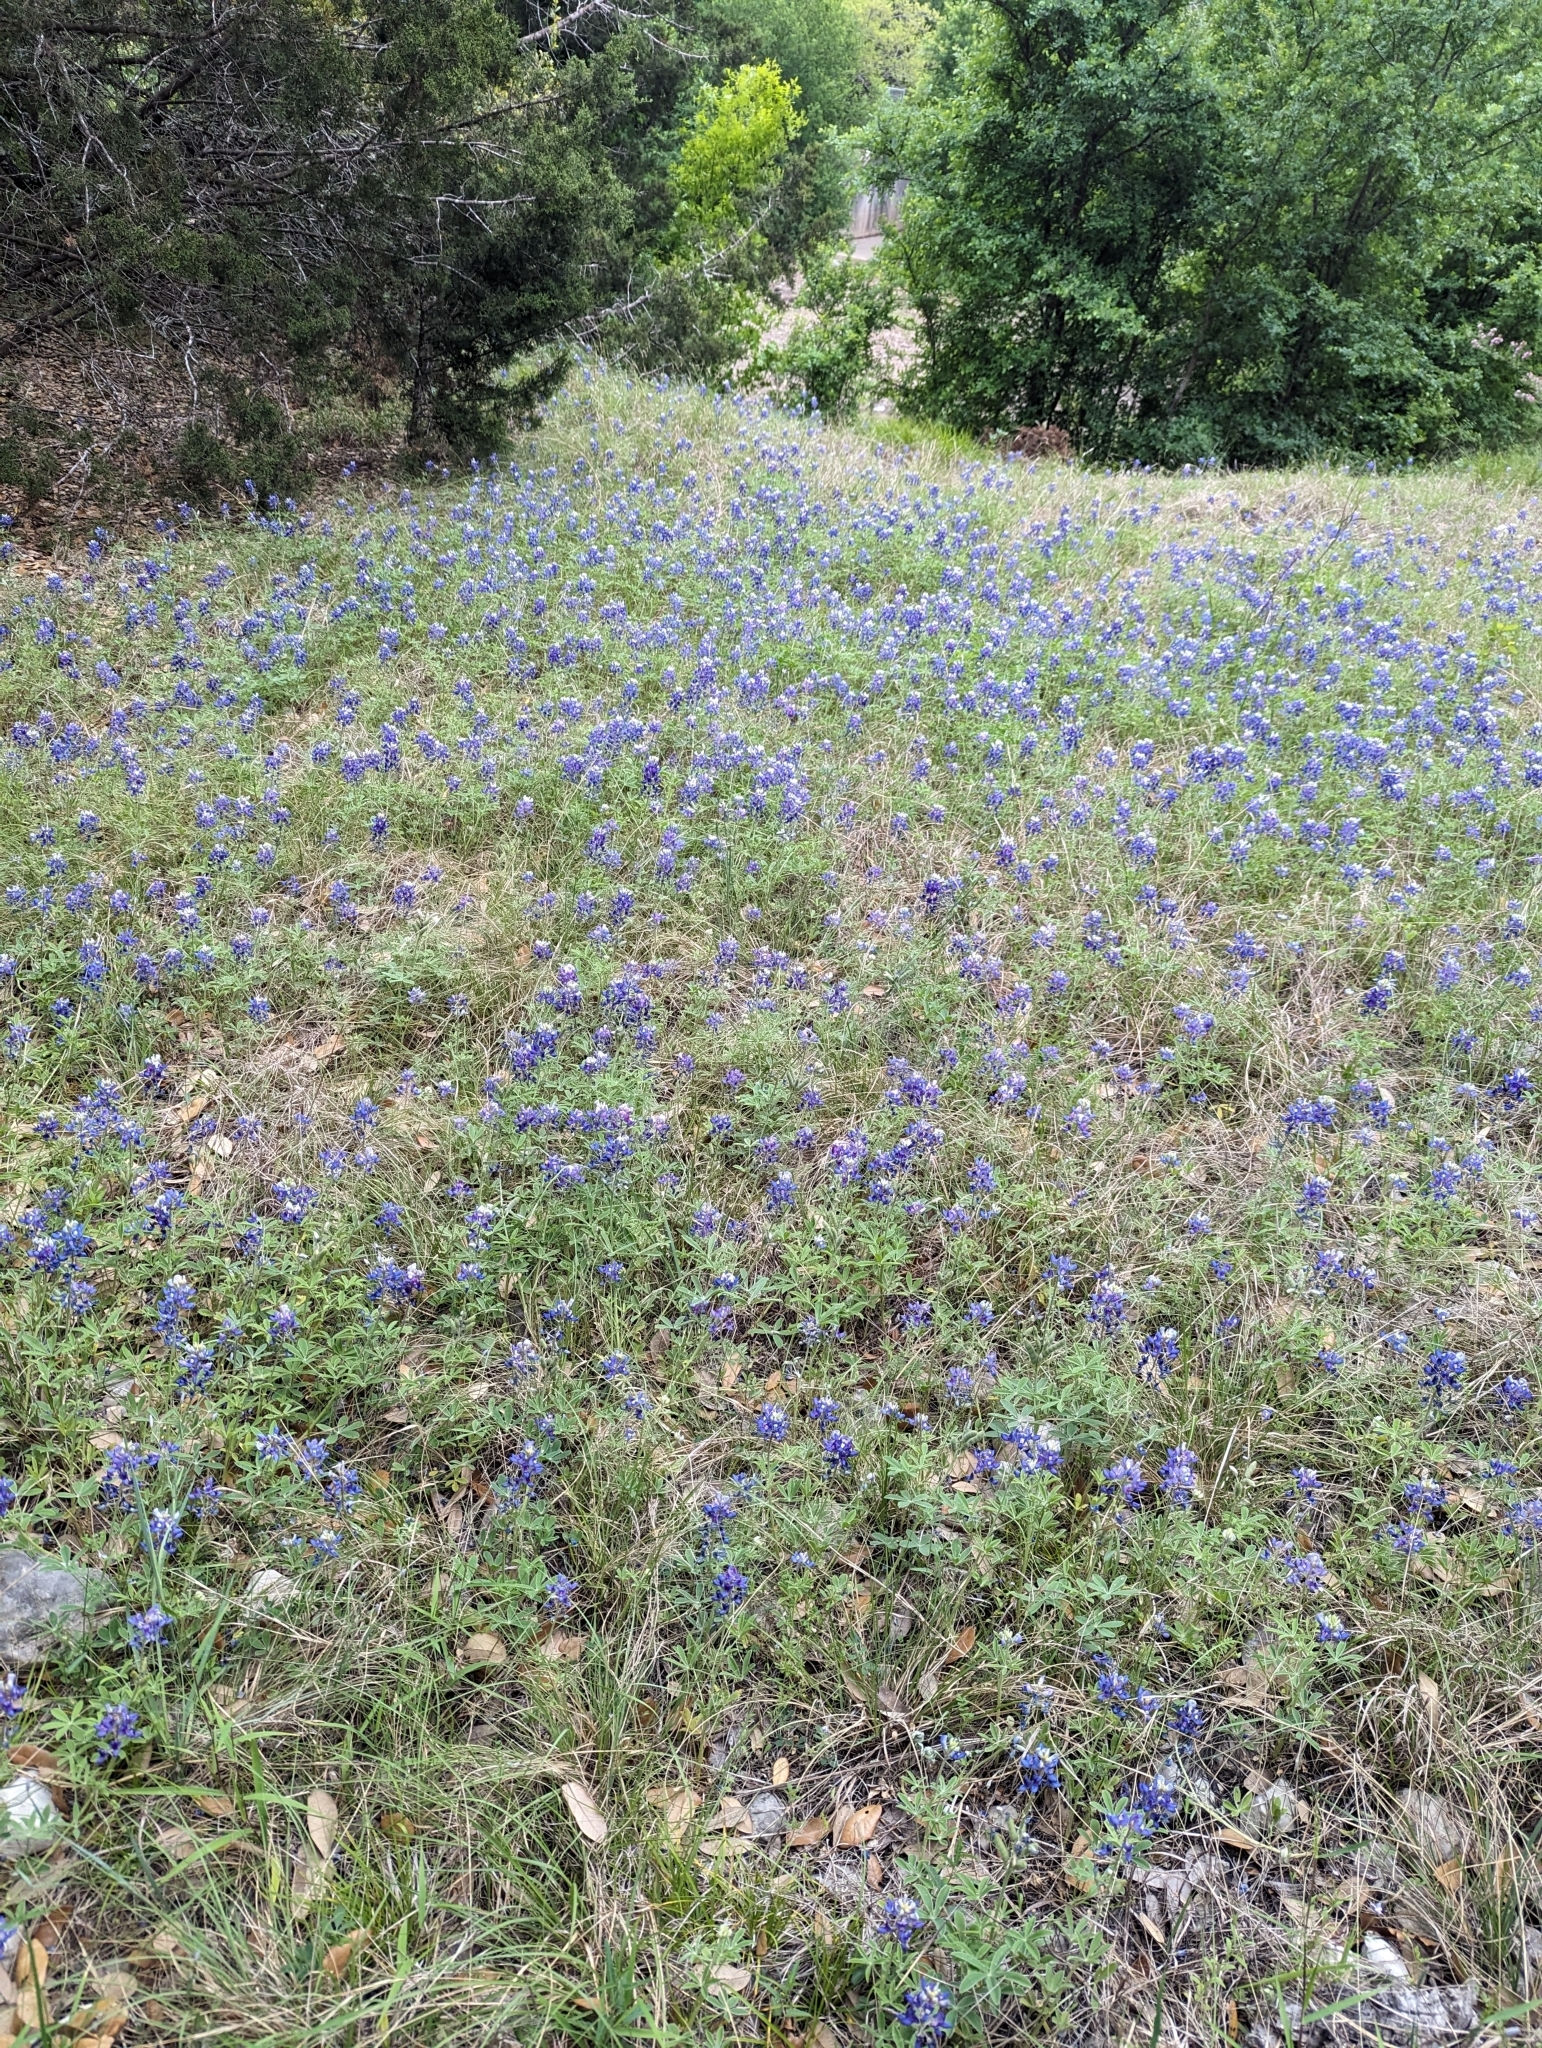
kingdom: Plantae
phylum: Tracheophyta
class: Magnoliopsida
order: Fabales
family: Fabaceae
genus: Lupinus
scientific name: Lupinus texensis
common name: Texas bluebonnet
